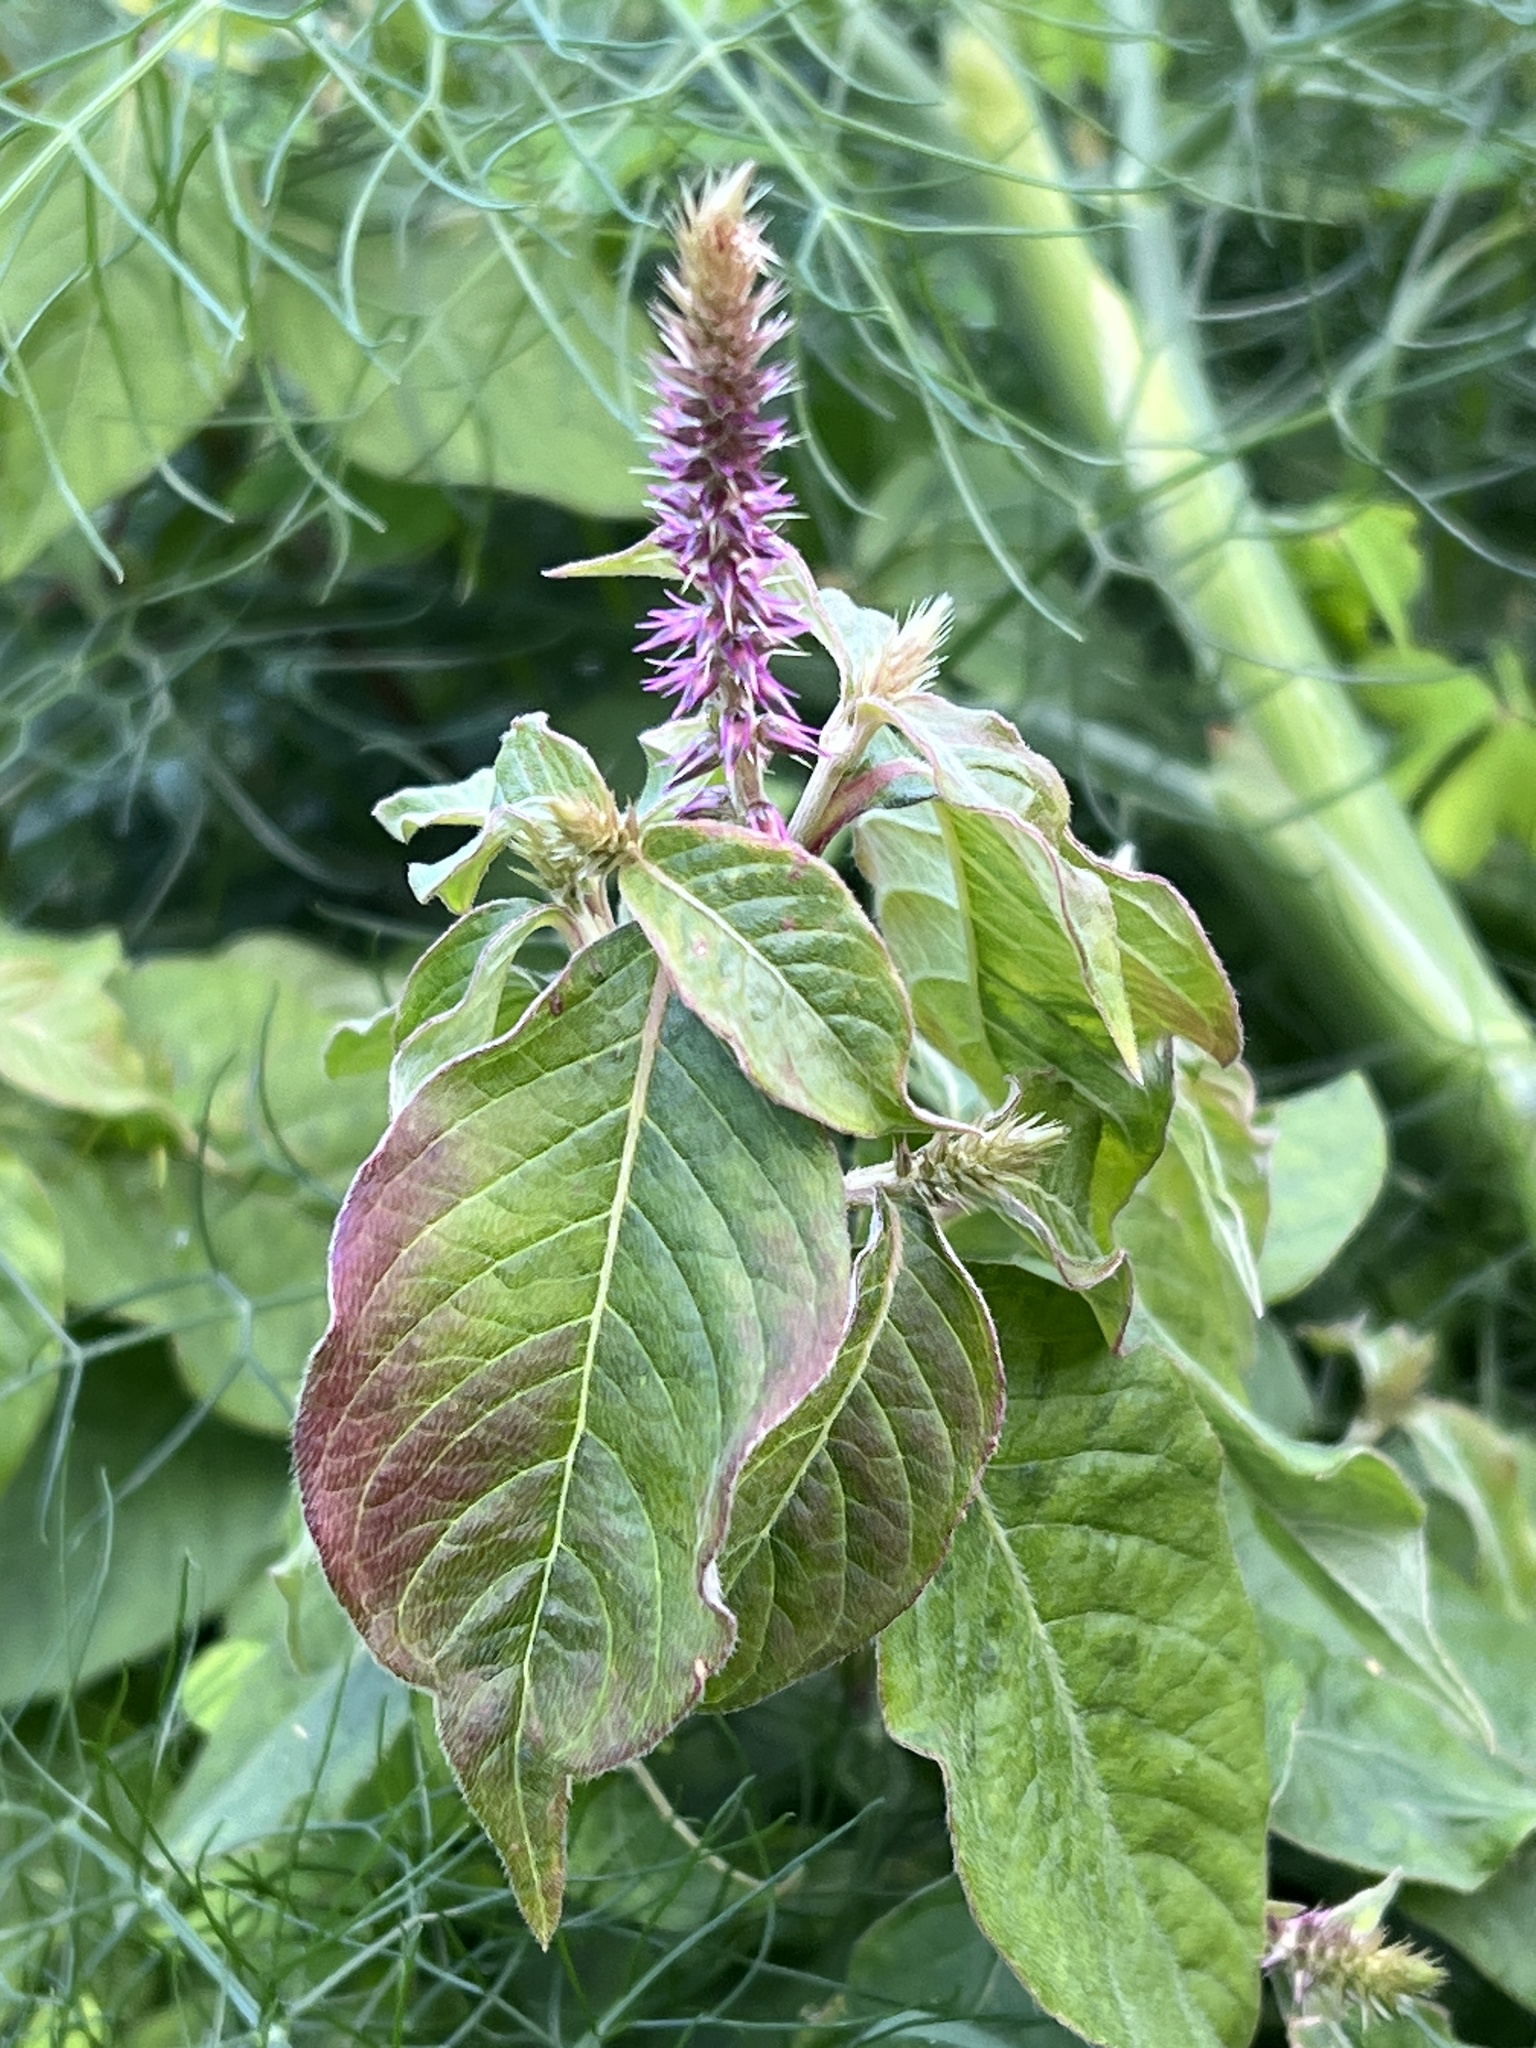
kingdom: Plantae
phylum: Tracheophyta
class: Magnoliopsida
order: Caryophyllales
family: Amaranthaceae
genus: Achyranthes
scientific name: Achyranthes aspera
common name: Devil's horsewhip
